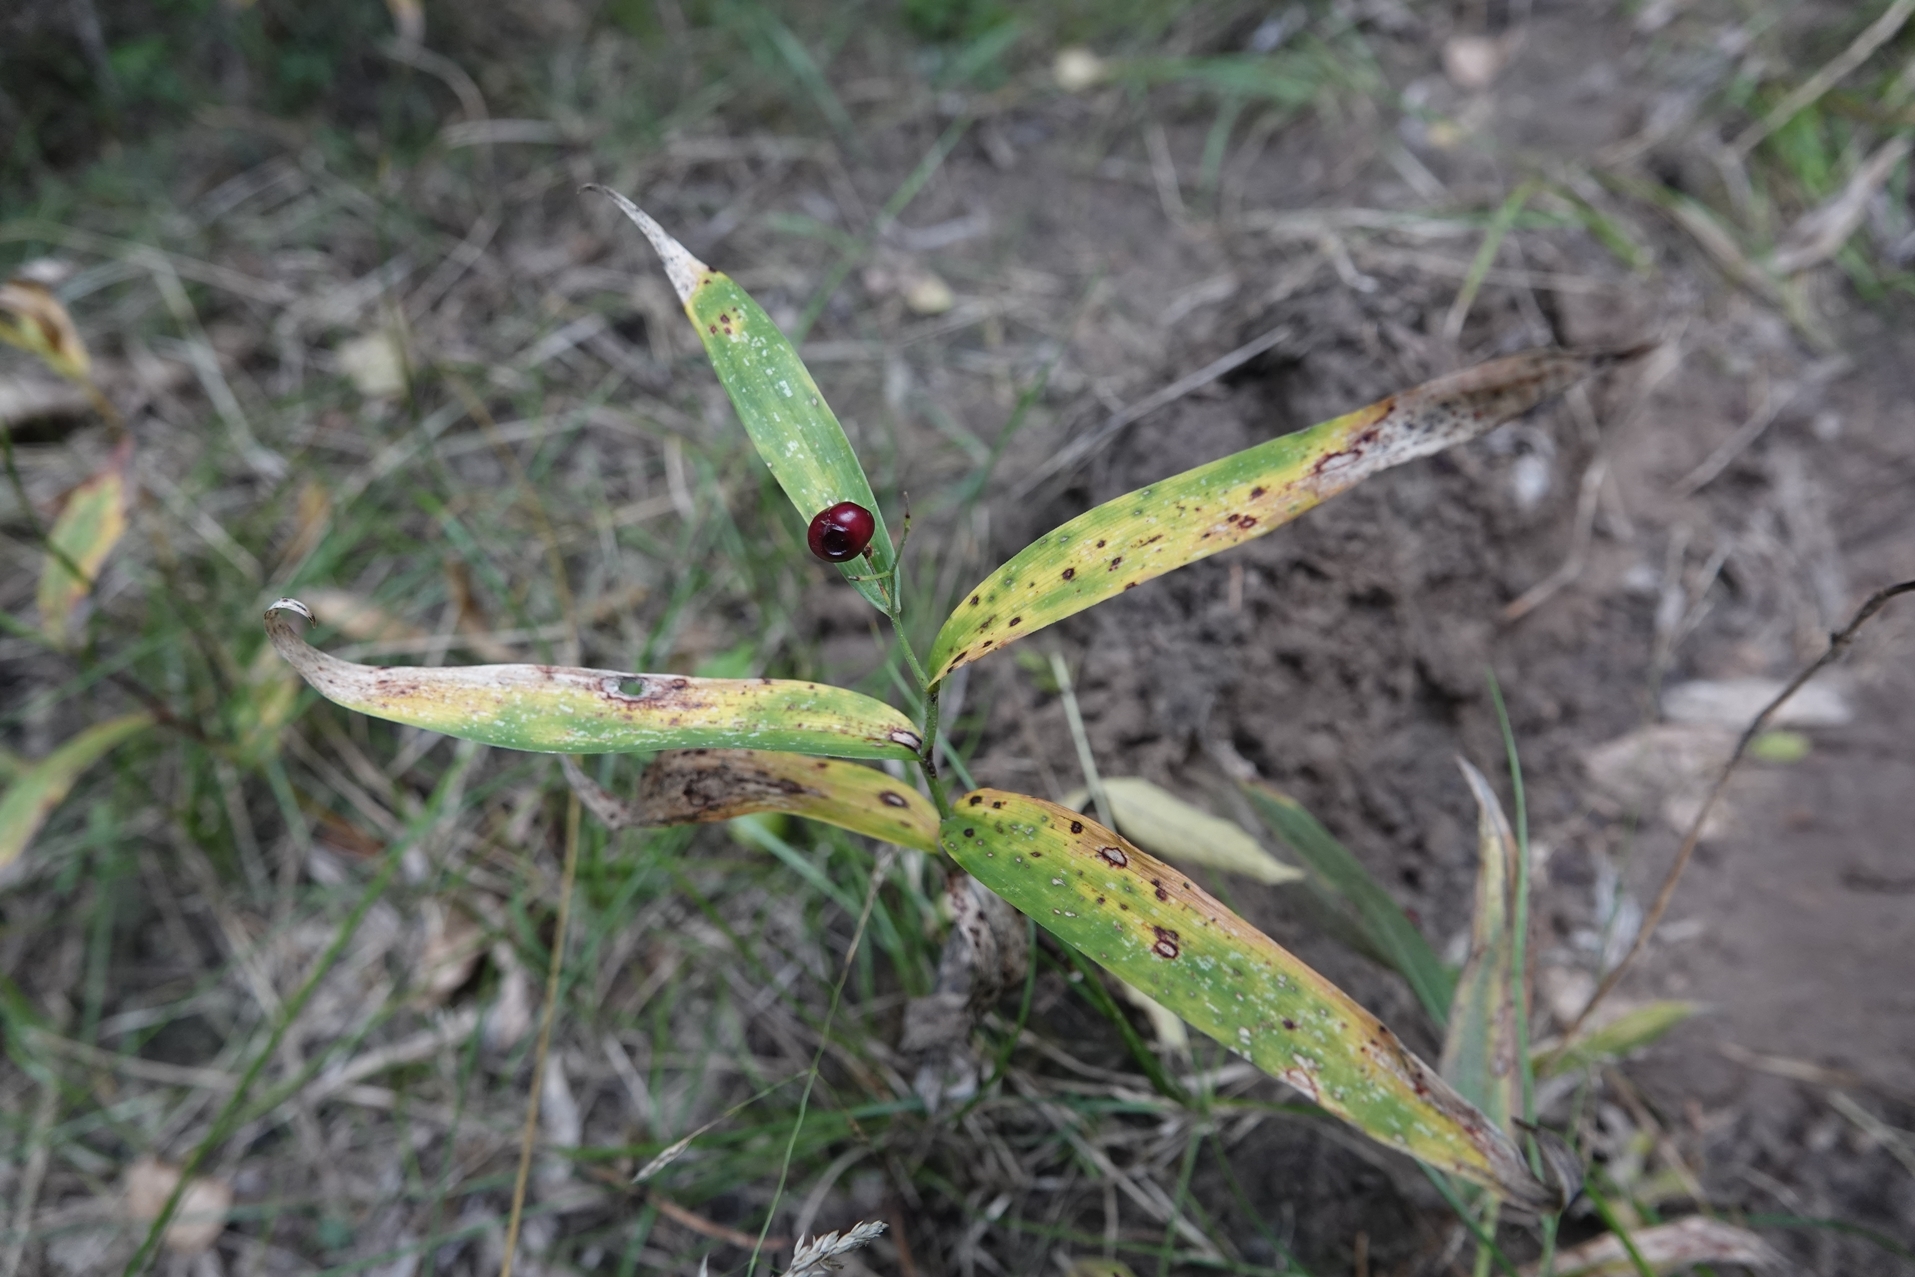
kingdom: Plantae
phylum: Tracheophyta
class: Liliopsida
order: Asparagales
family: Asparagaceae
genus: Maianthemum
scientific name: Maianthemum stellatum
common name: Little false solomon's seal
